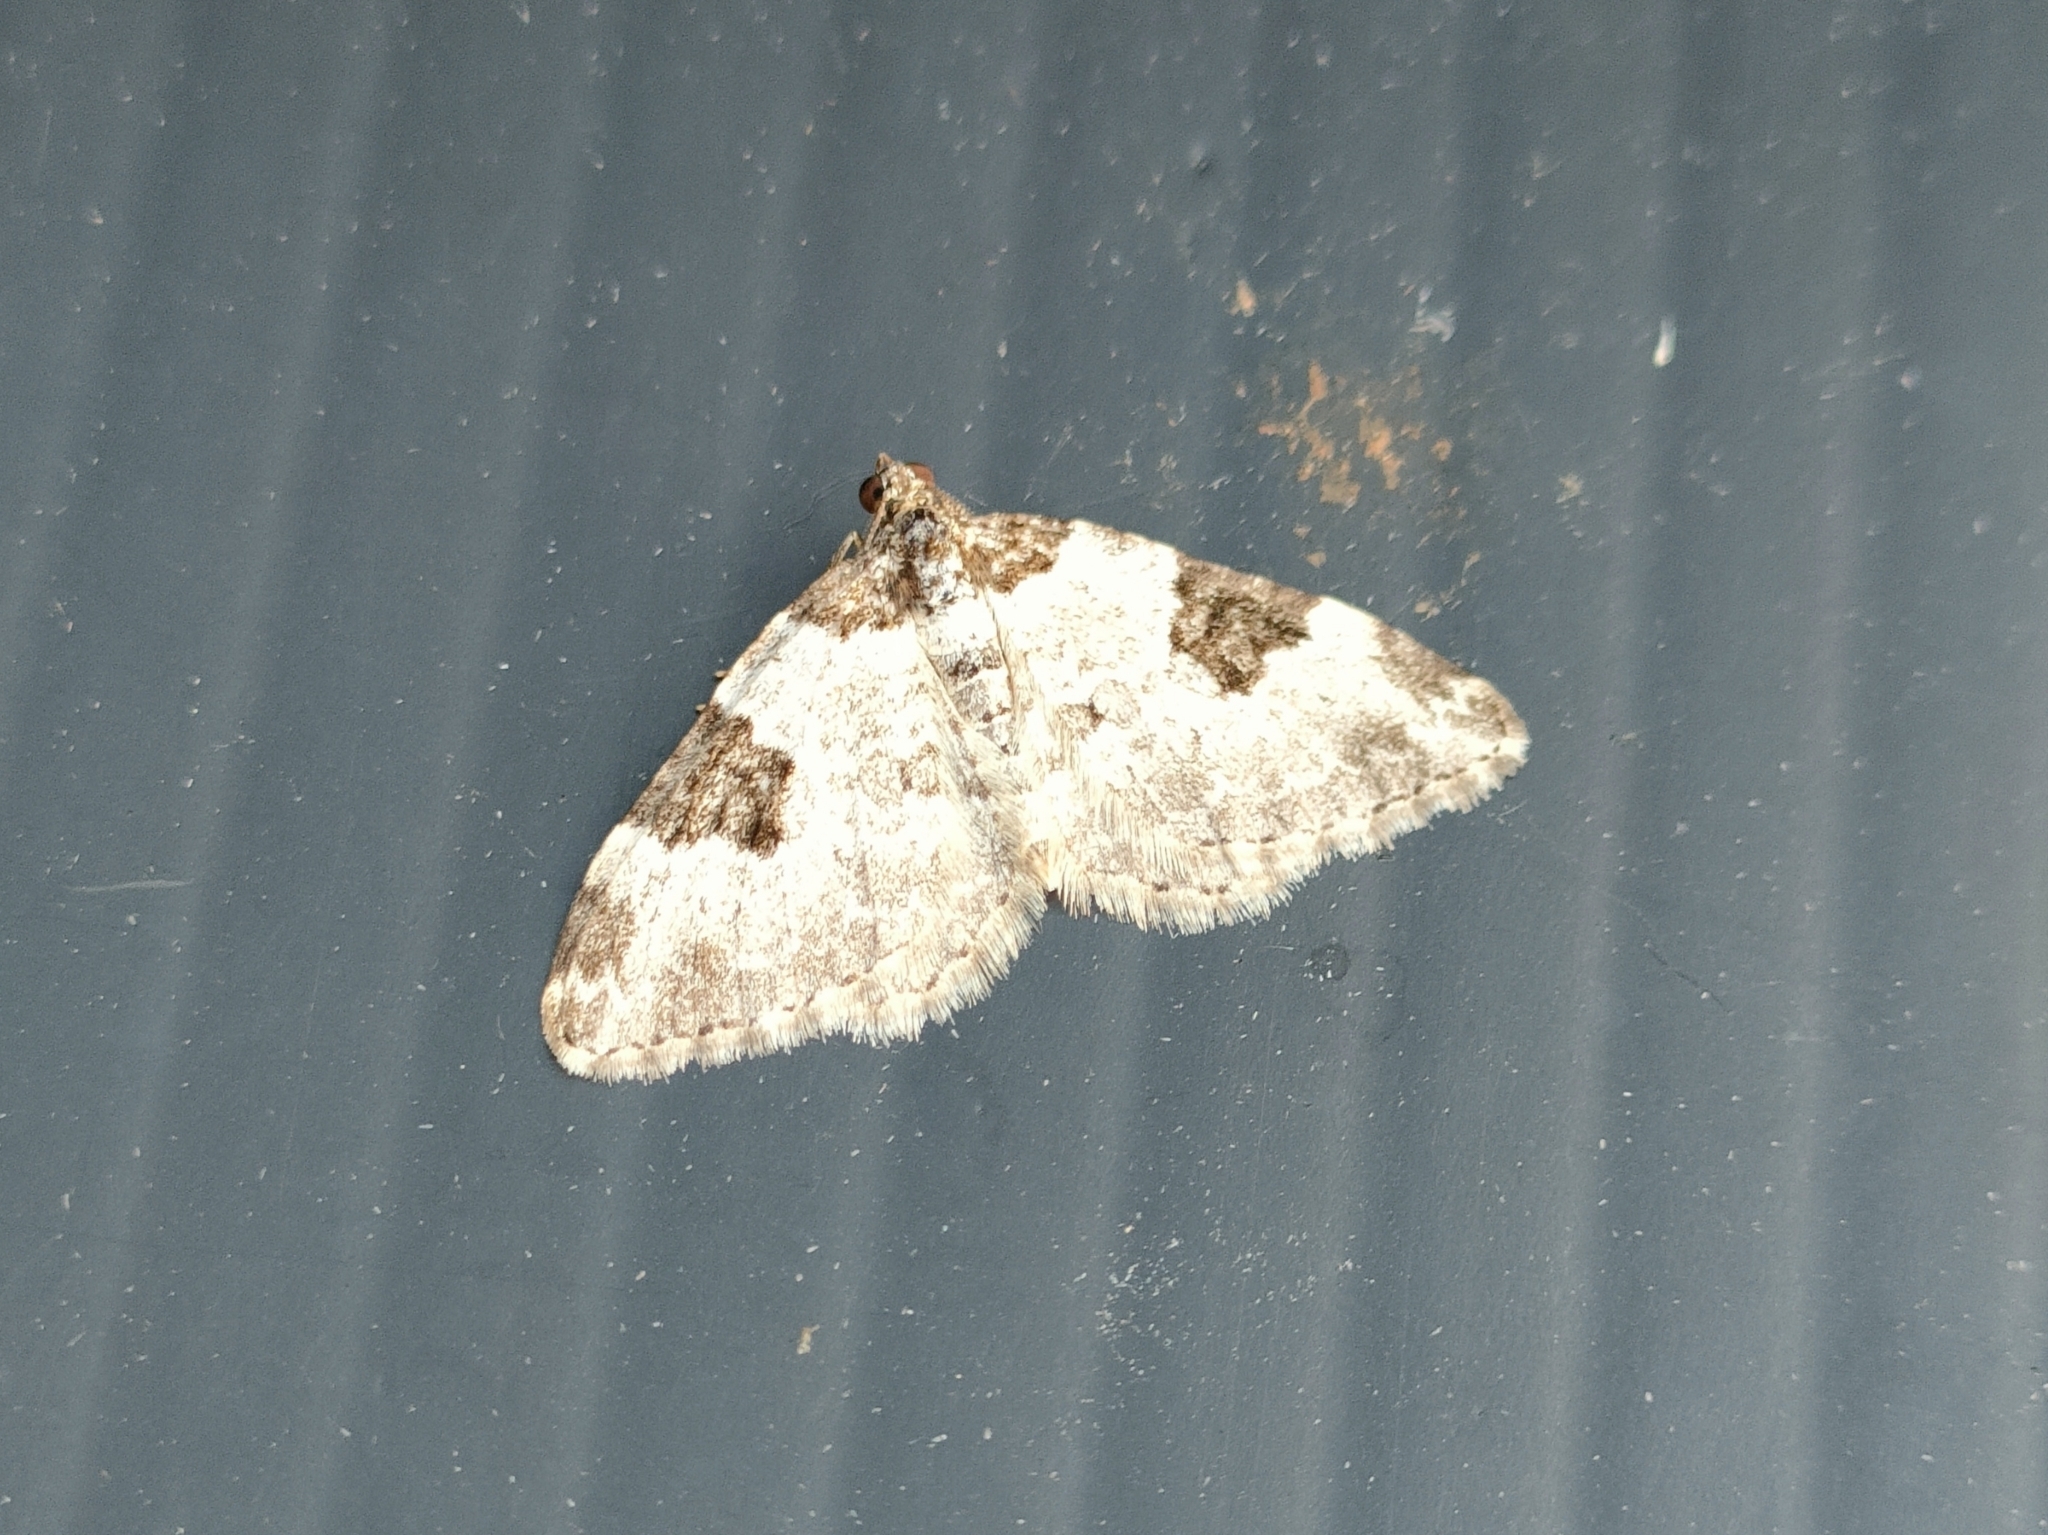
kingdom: Animalia
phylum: Arthropoda
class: Insecta
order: Lepidoptera
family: Geometridae
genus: Xanthorhoe
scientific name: Xanthorhoe fluctuata
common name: Garden carpet
